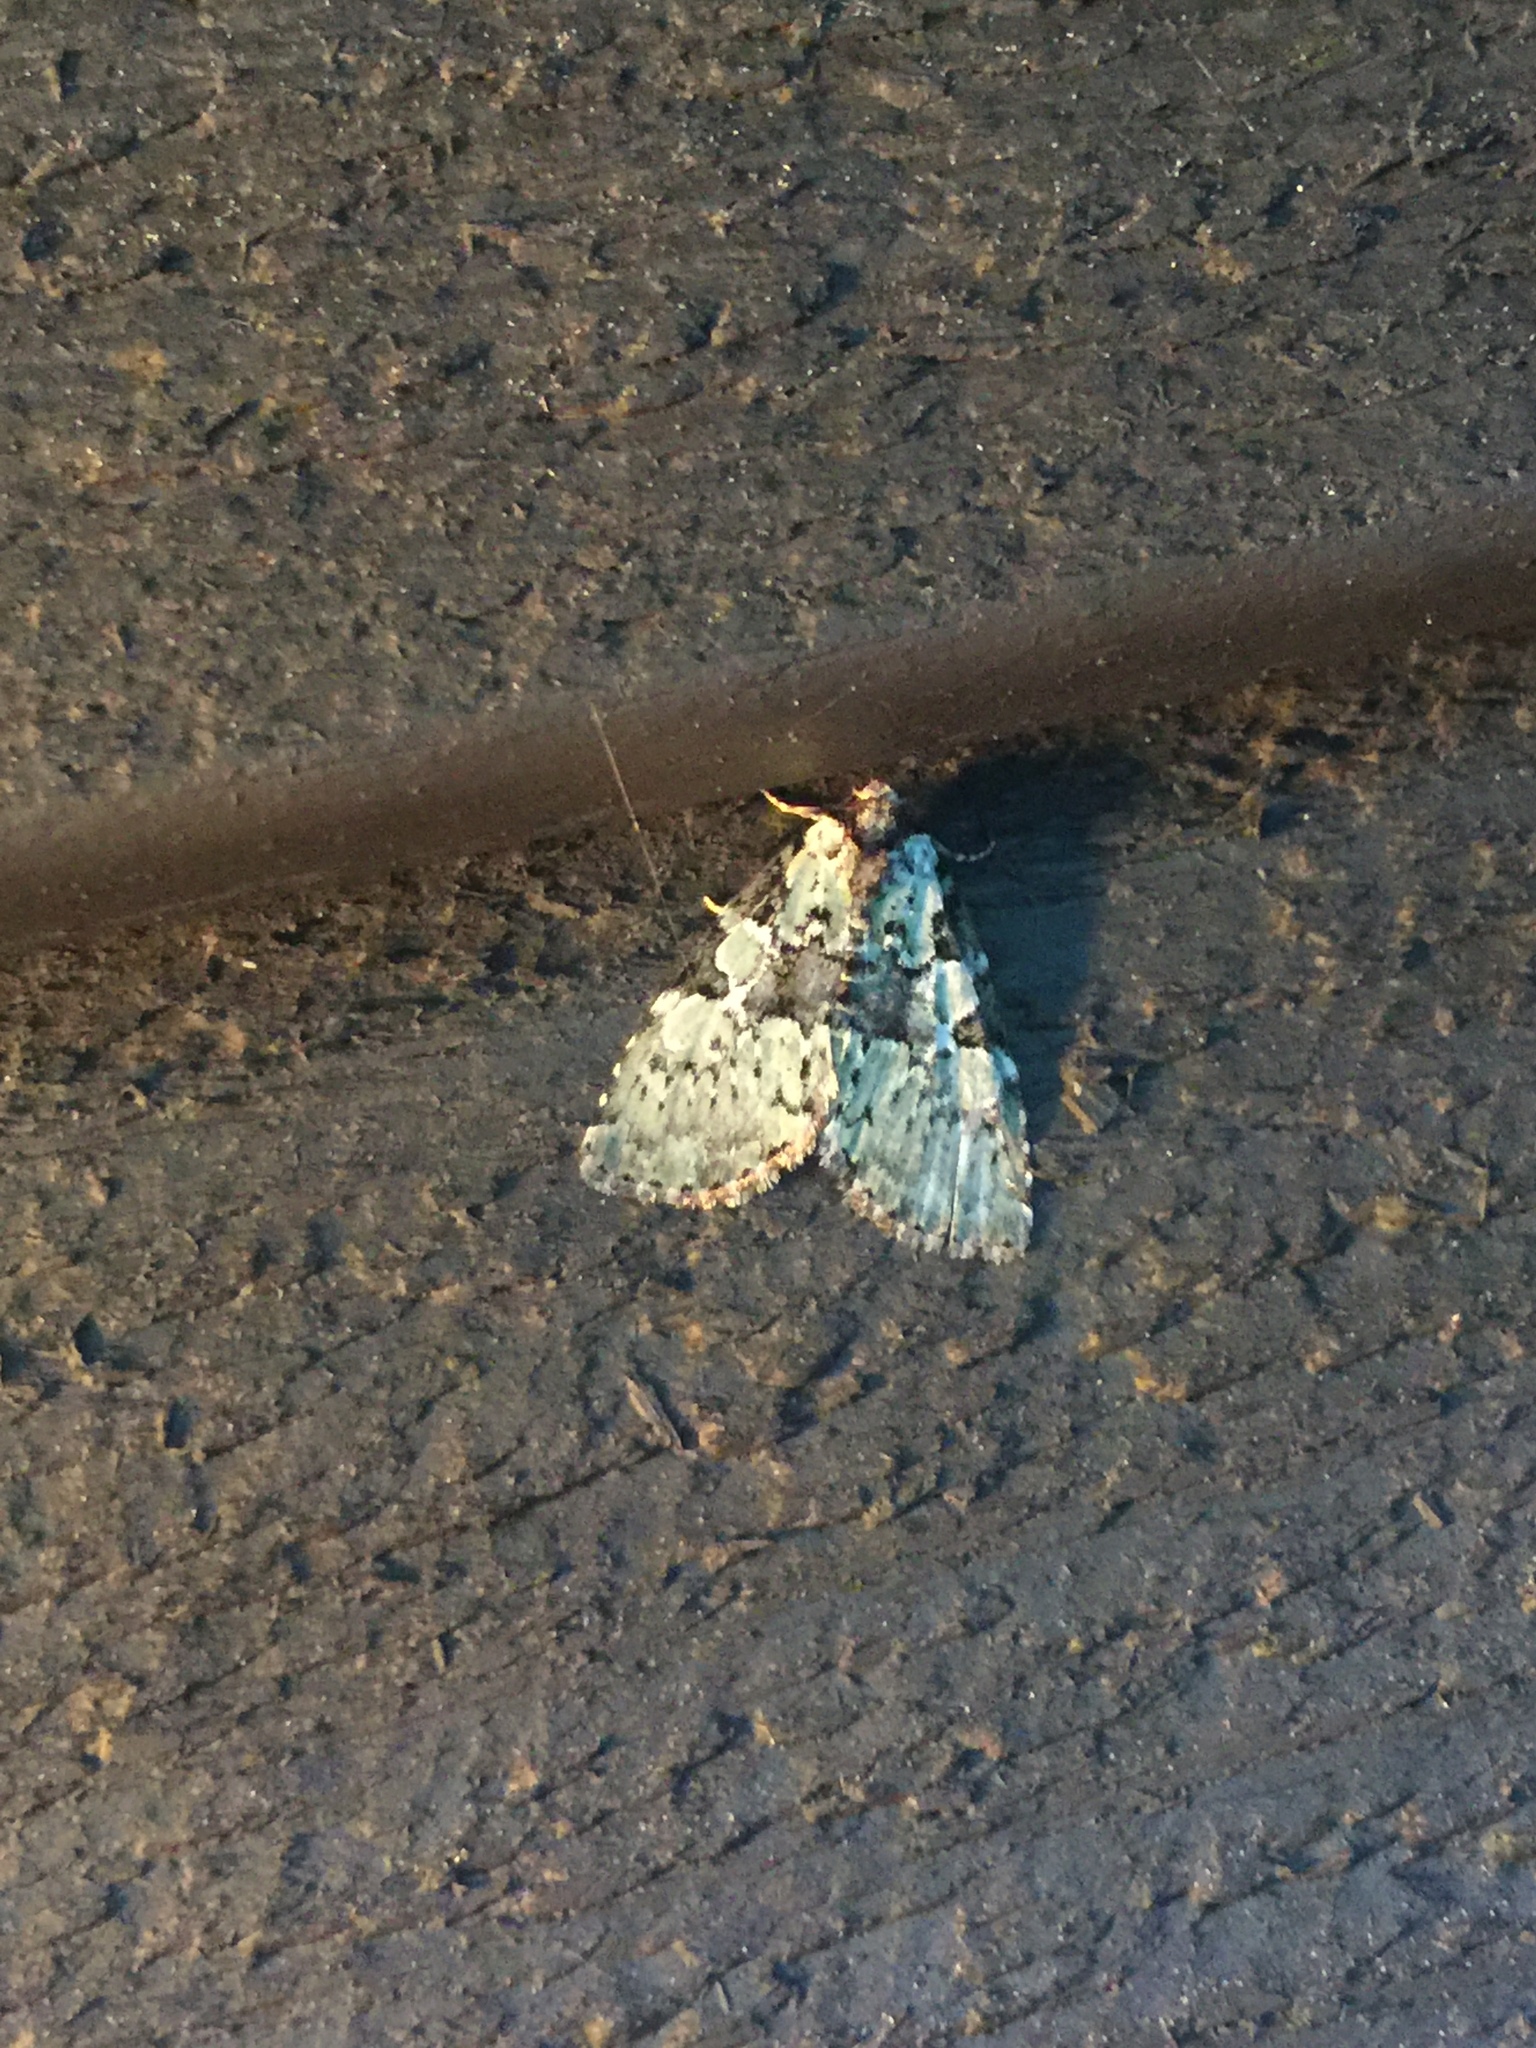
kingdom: Animalia
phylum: Arthropoda
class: Insecta
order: Lepidoptera
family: Noctuidae
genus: Leuconycta
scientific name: Leuconycta lepidula
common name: Marbled-green leuconycta moth
